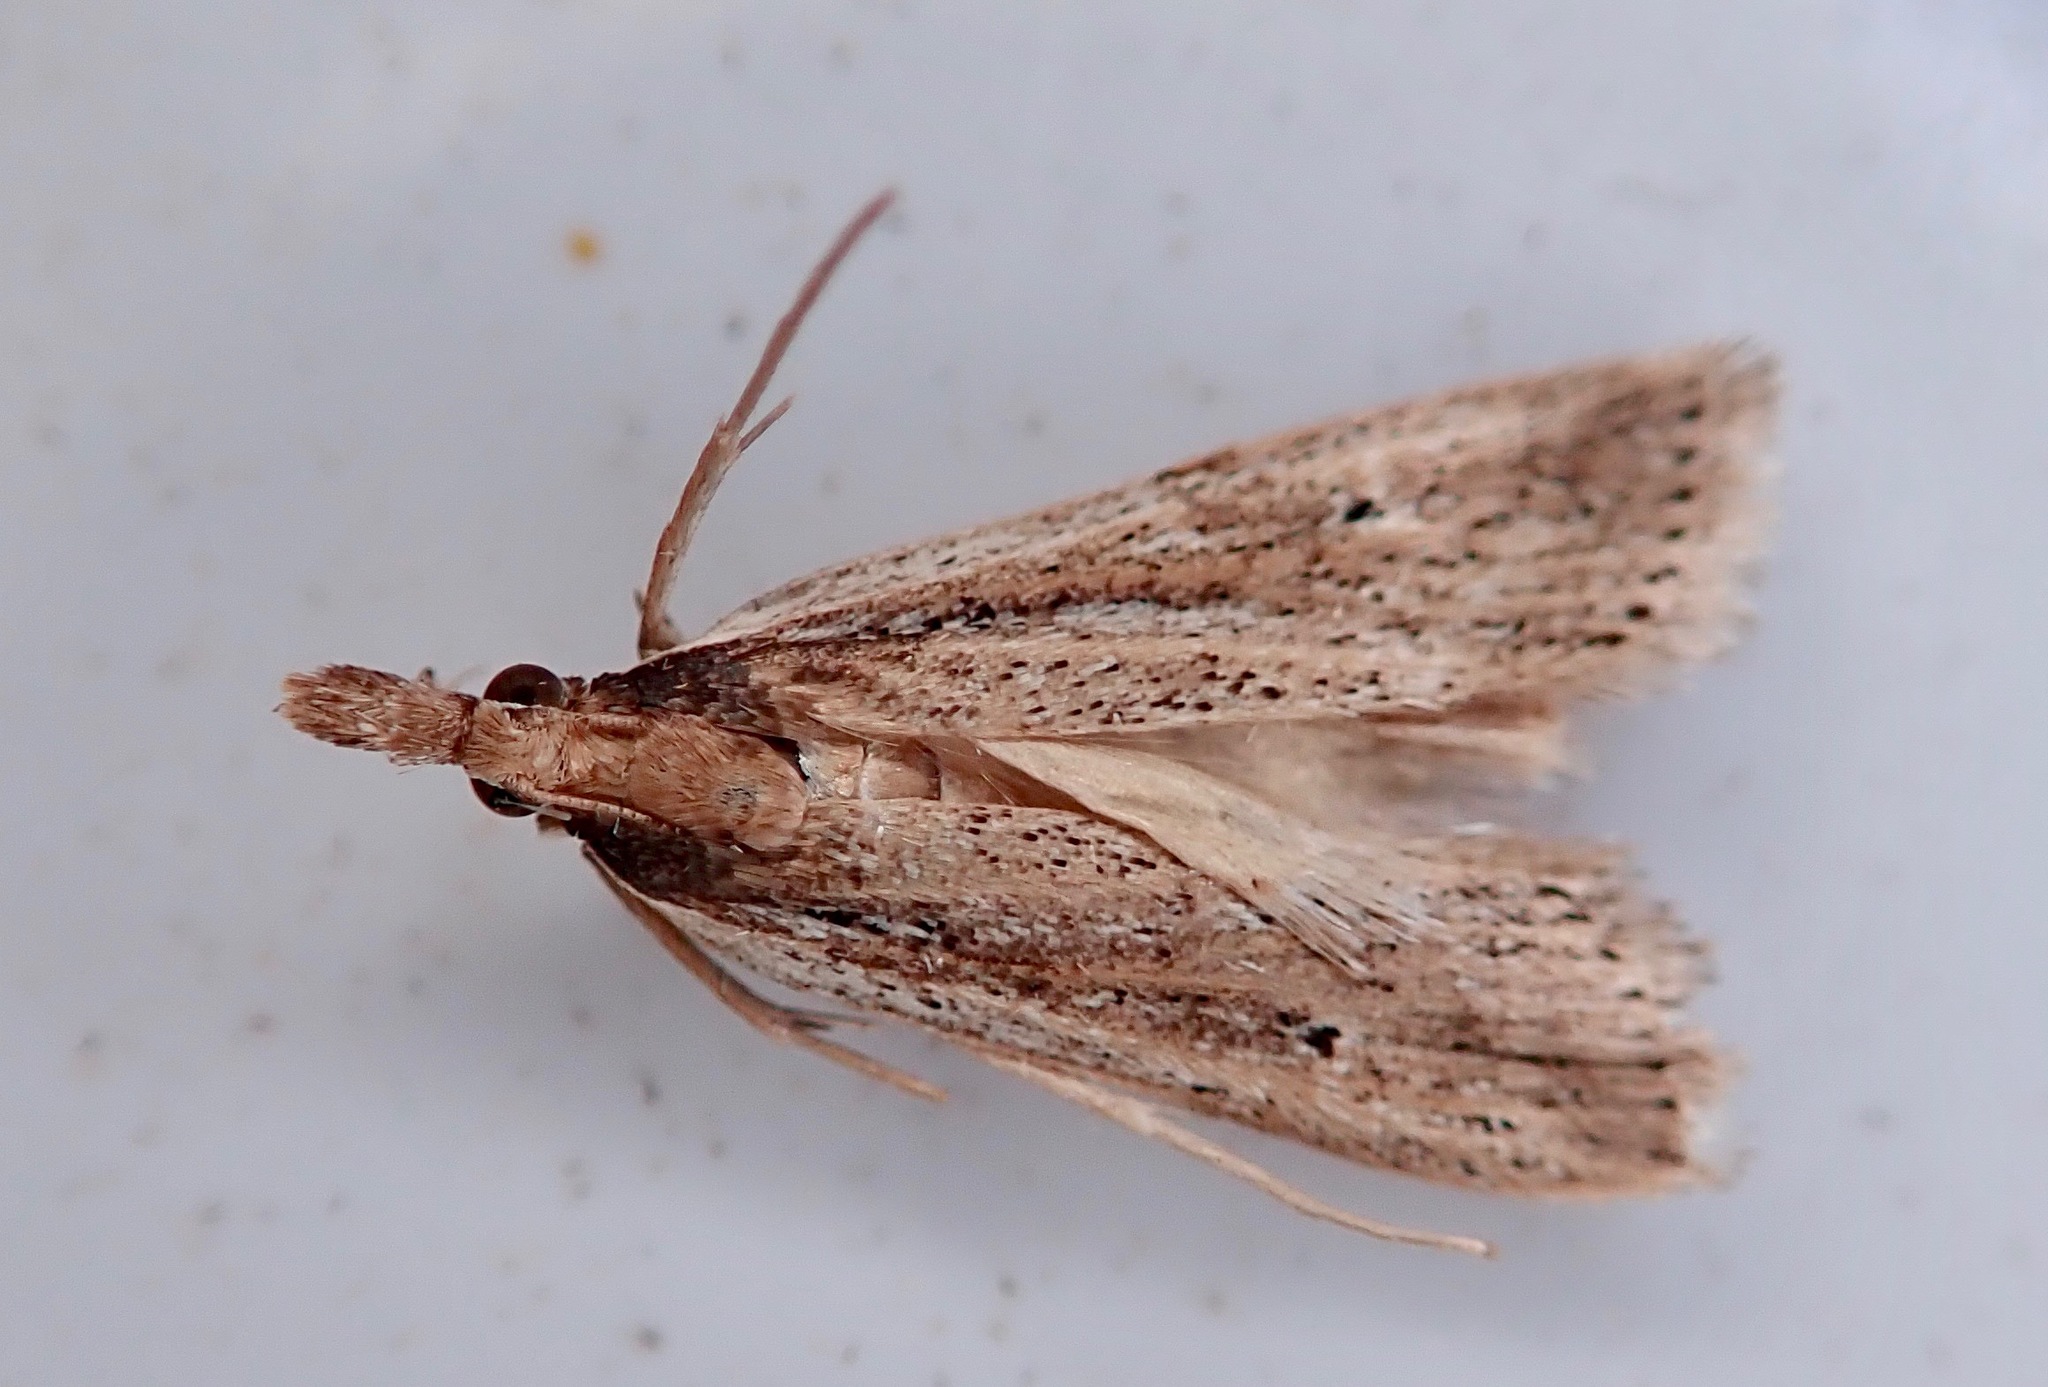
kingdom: Animalia
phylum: Arthropoda
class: Insecta
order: Lepidoptera
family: Crambidae
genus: Eudonia
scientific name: Eudonia sabulosella
